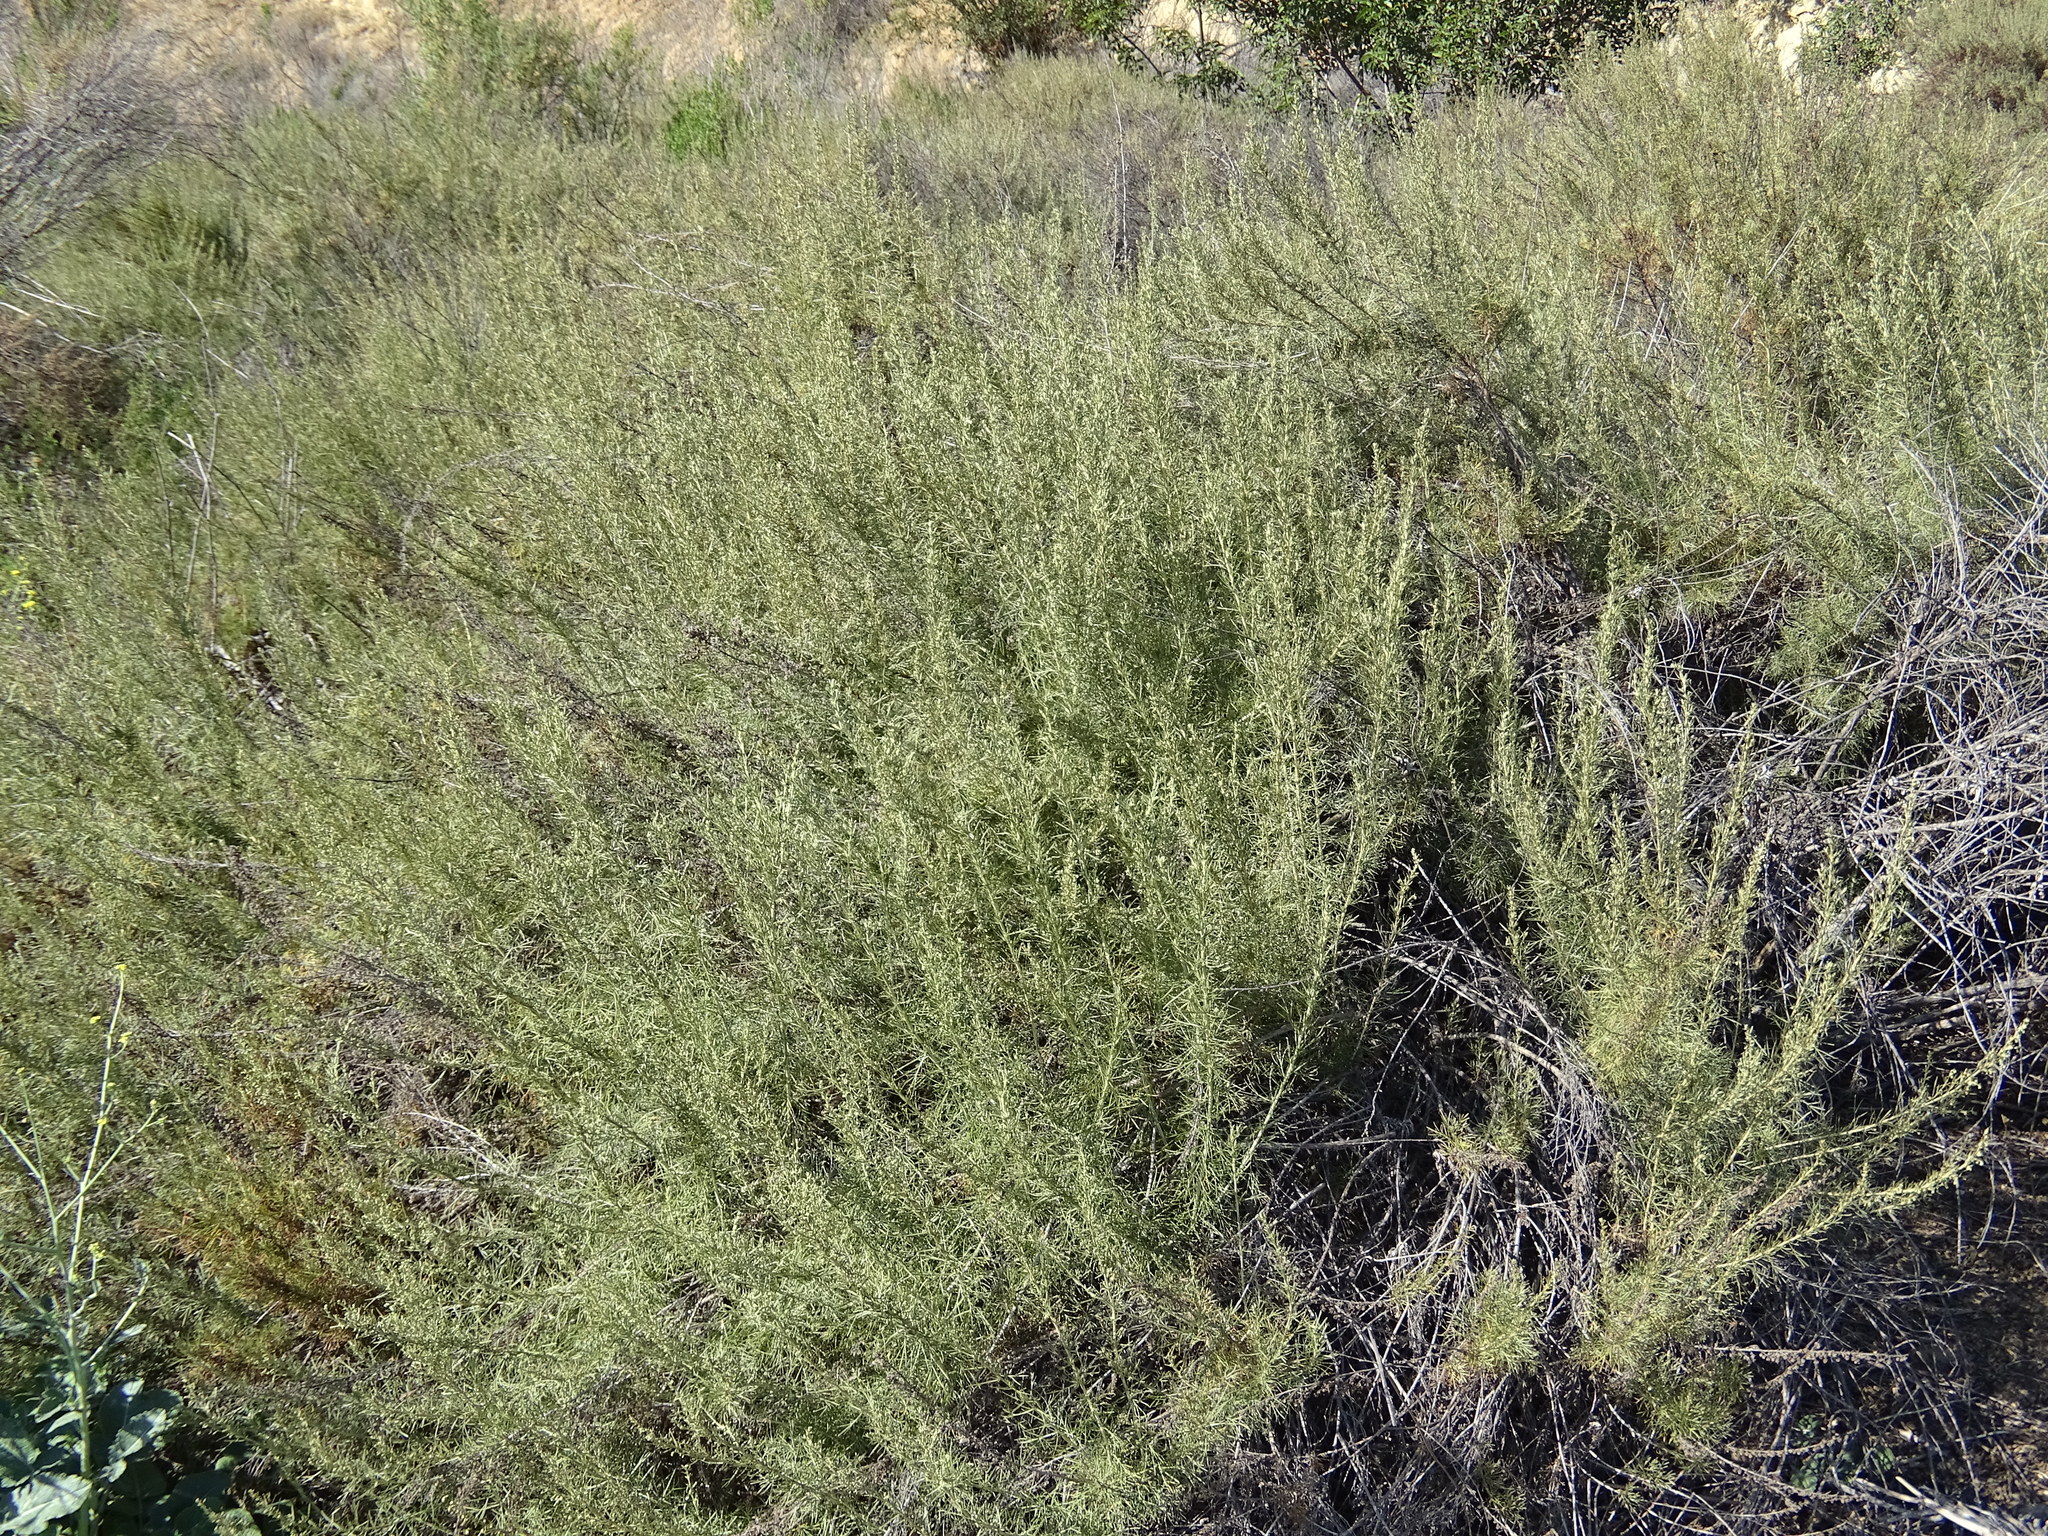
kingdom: Plantae
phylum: Tracheophyta
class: Magnoliopsida
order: Asterales
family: Asteraceae
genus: Artemisia
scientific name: Artemisia californica
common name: California sagebrush
